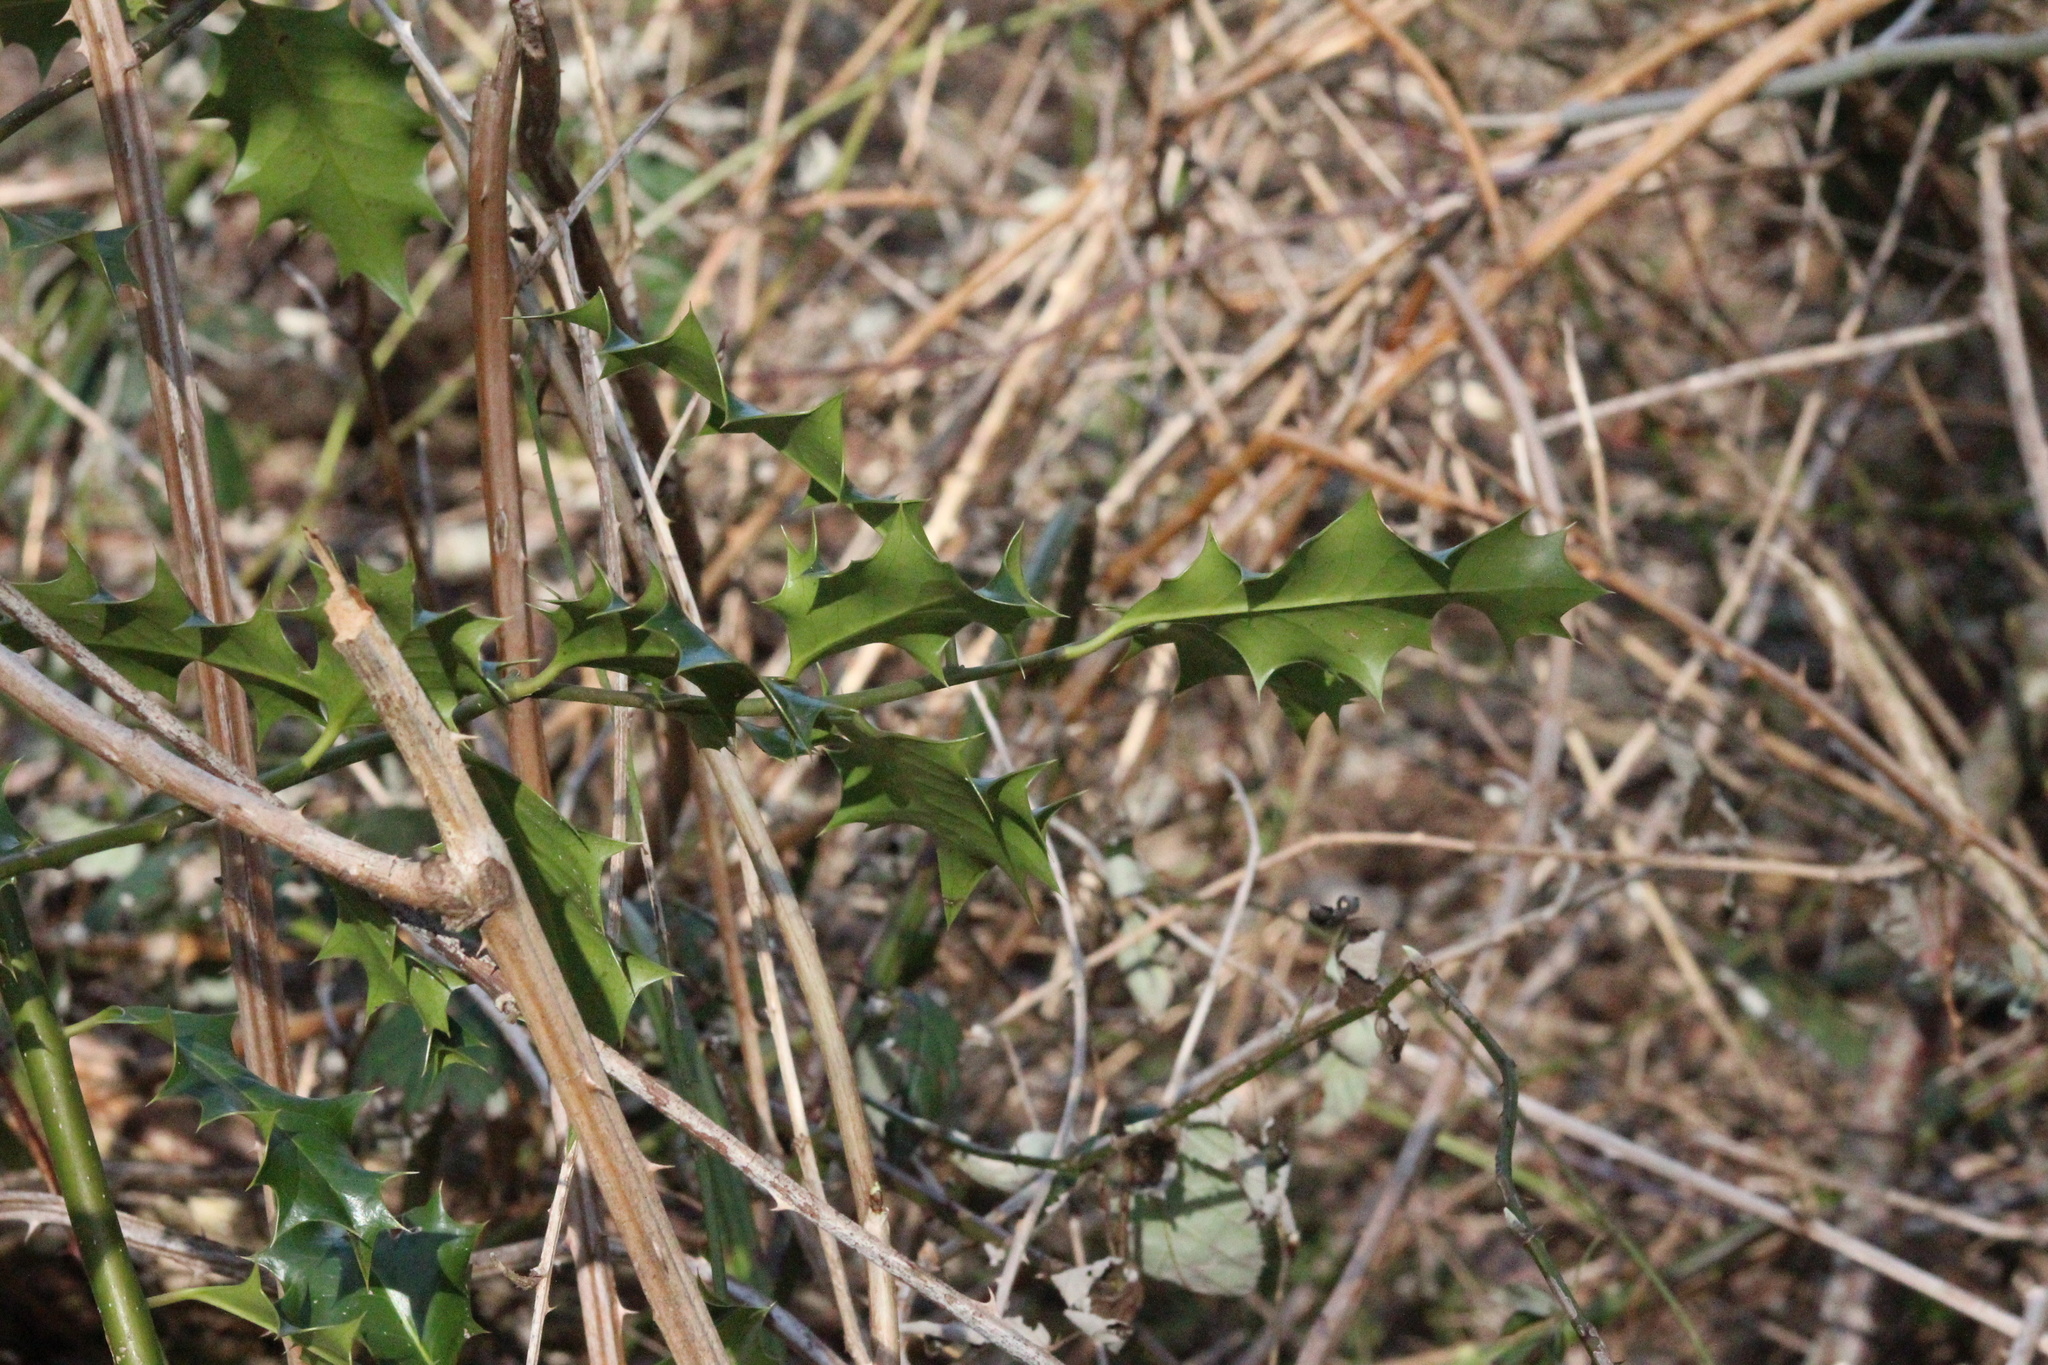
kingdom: Plantae
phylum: Tracheophyta
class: Magnoliopsida
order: Aquifoliales
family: Aquifoliaceae
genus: Ilex
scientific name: Ilex aquifolium
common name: English holly
